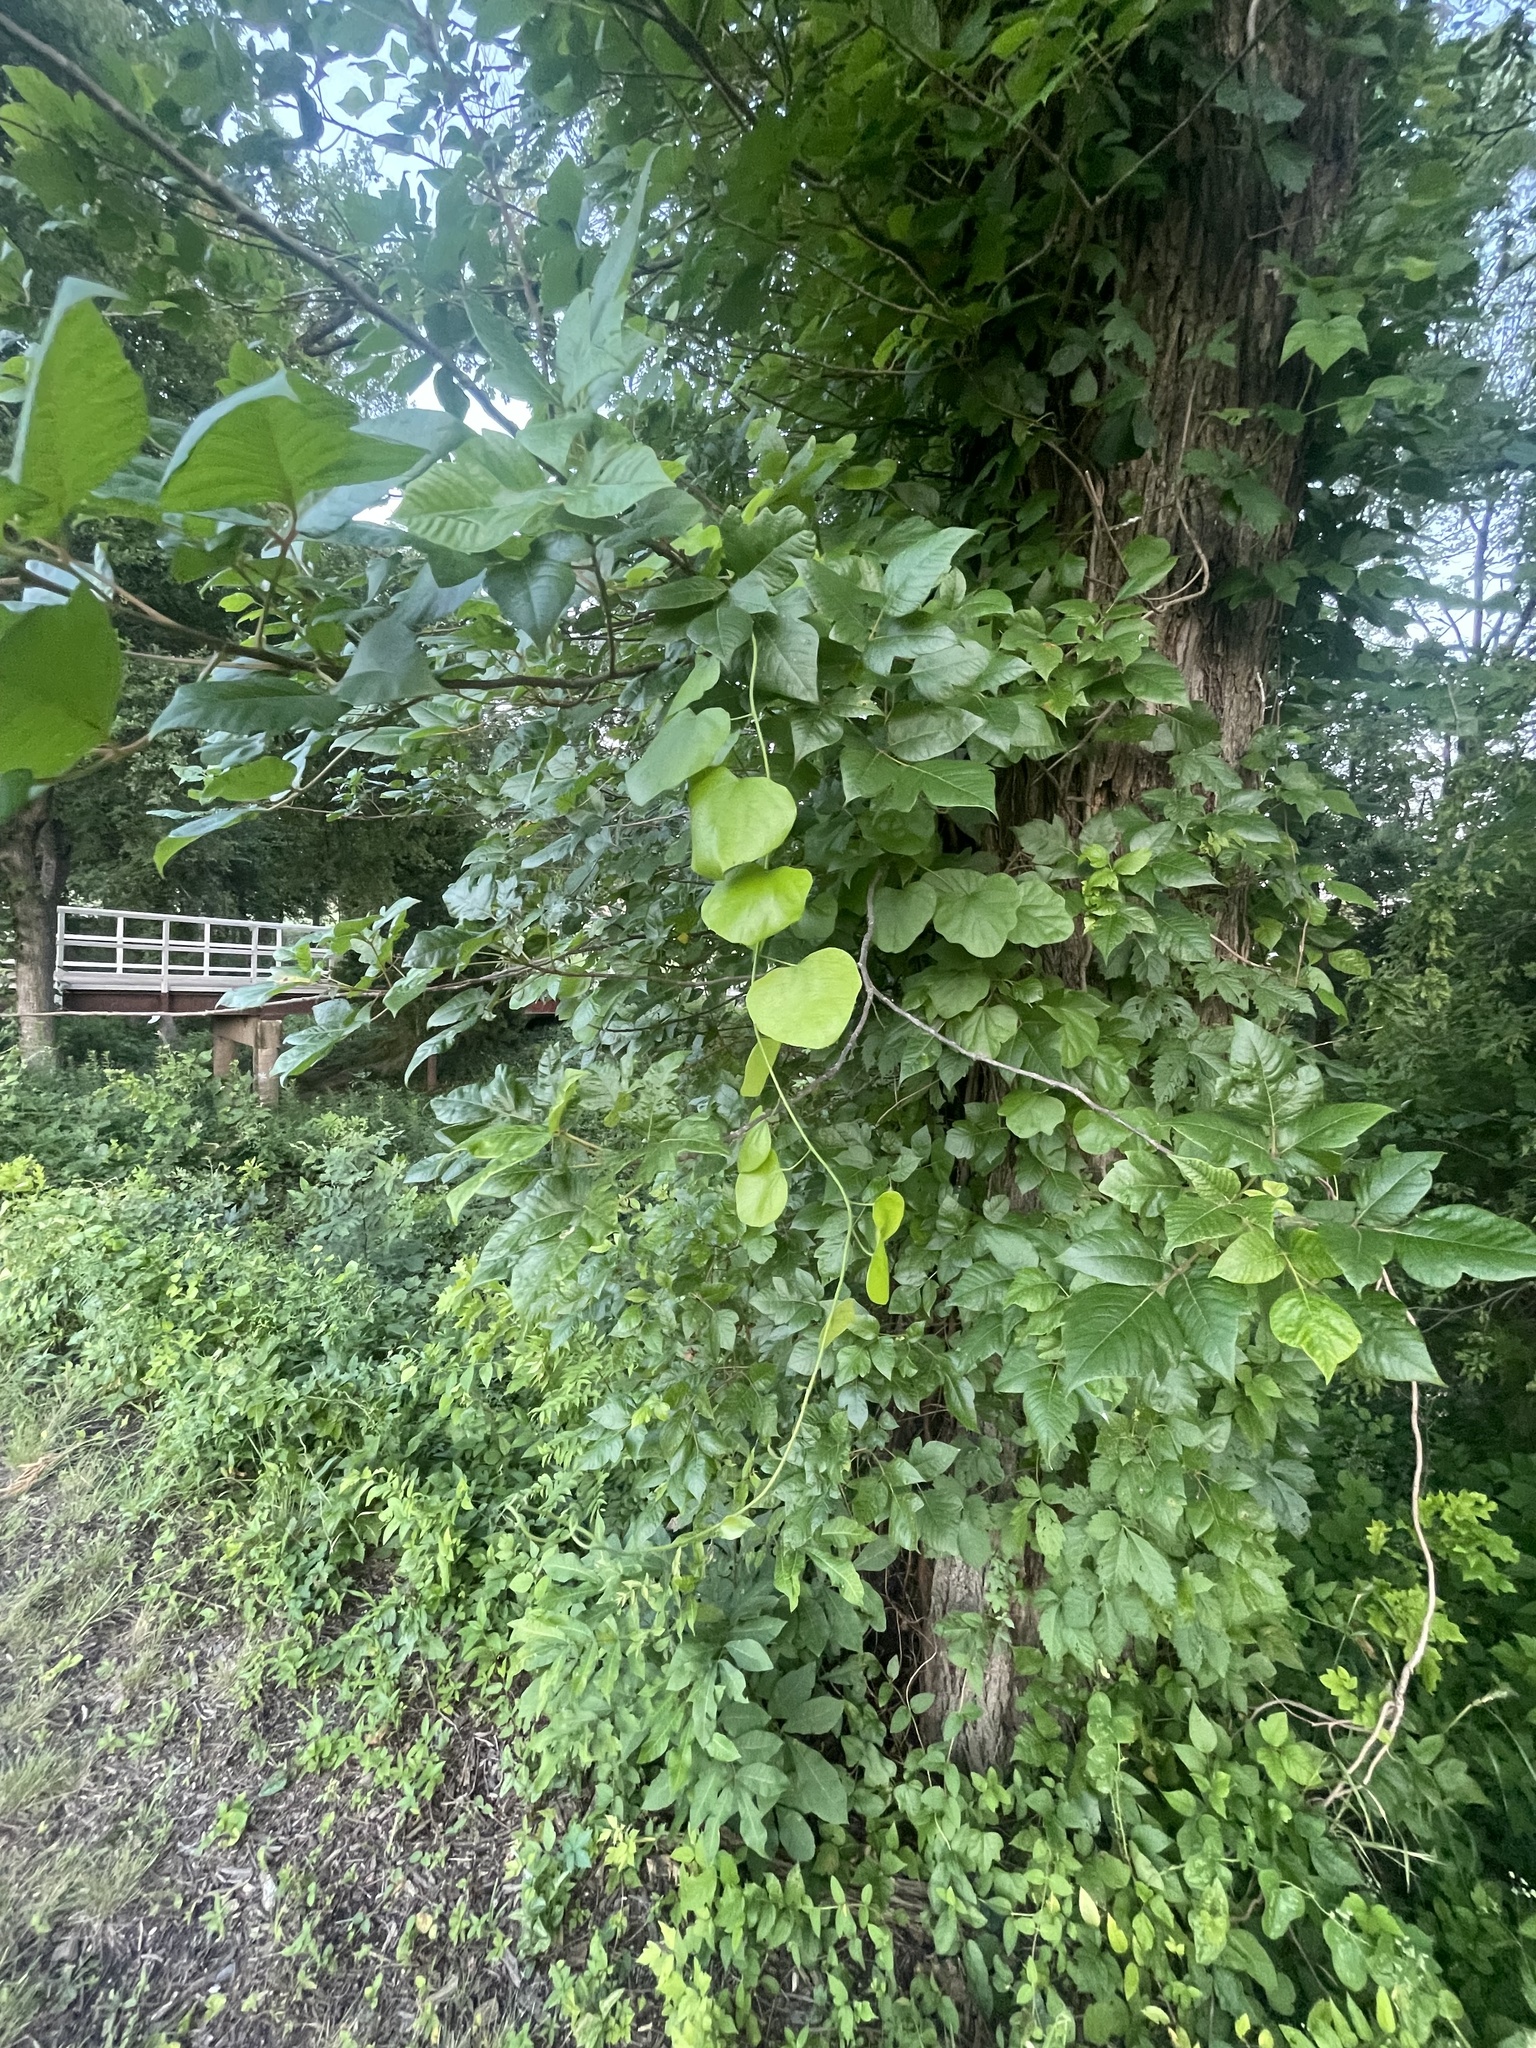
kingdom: Plantae
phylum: Tracheophyta
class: Magnoliopsida
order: Ranunculales
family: Menispermaceae
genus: Cocculus
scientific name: Cocculus carolinus
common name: Carolina moonseed
